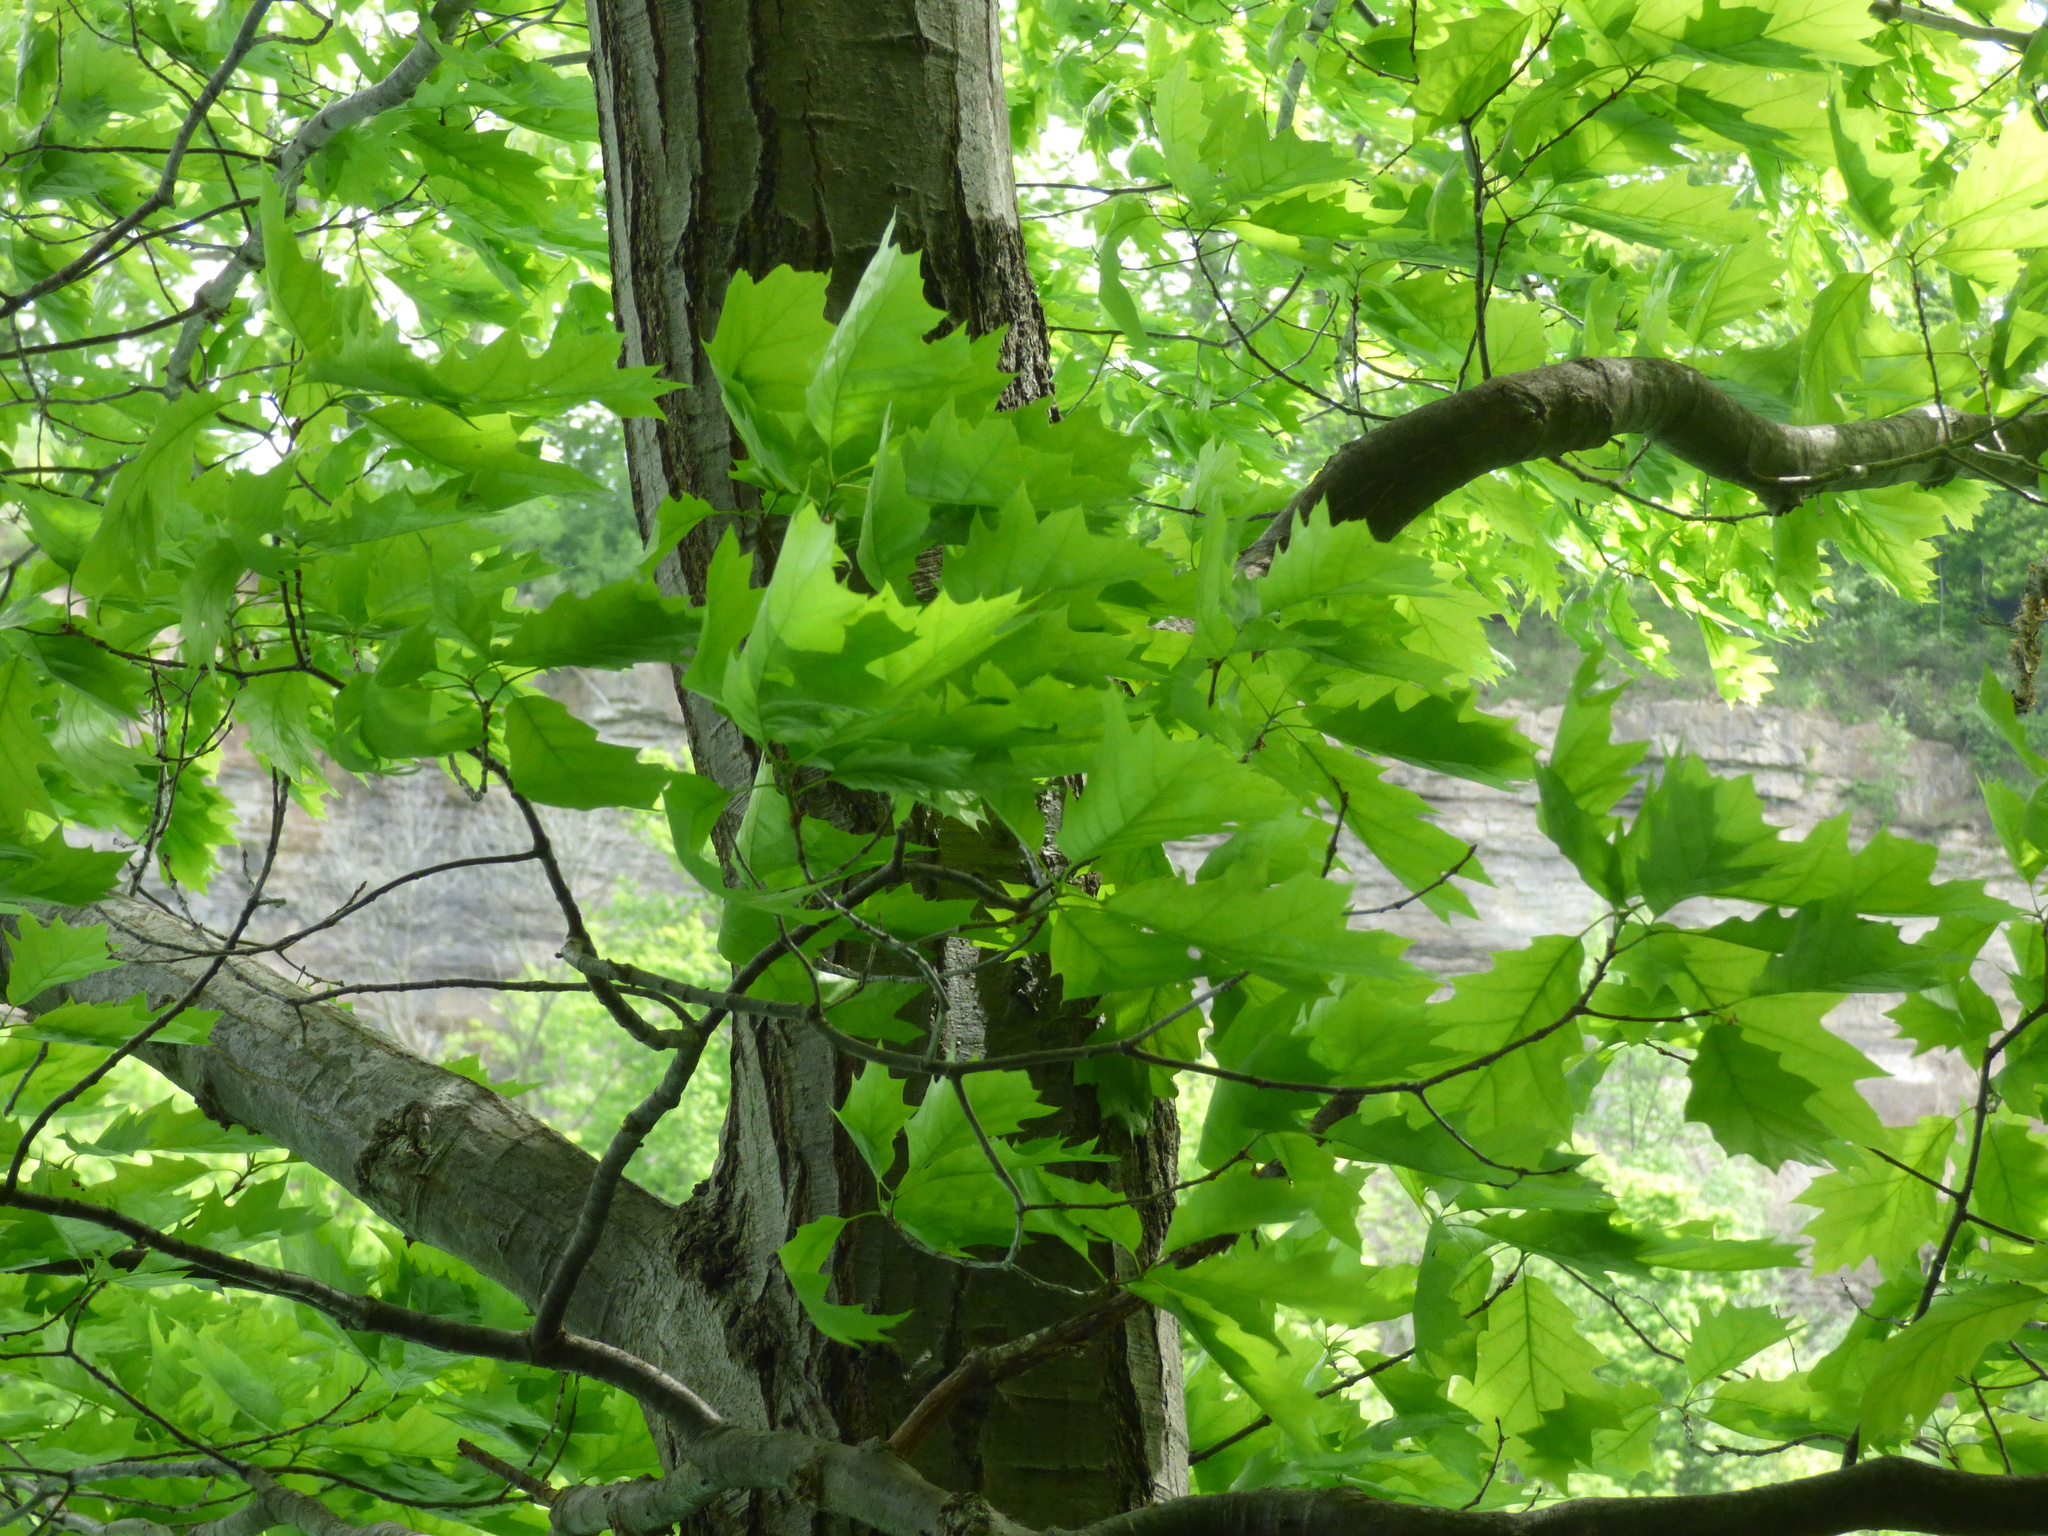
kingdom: Plantae
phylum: Tracheophyta
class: Magnoliopsida
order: Fagales
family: Fagaceae
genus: Quercus
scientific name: Quercus rubra
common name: Red oak
